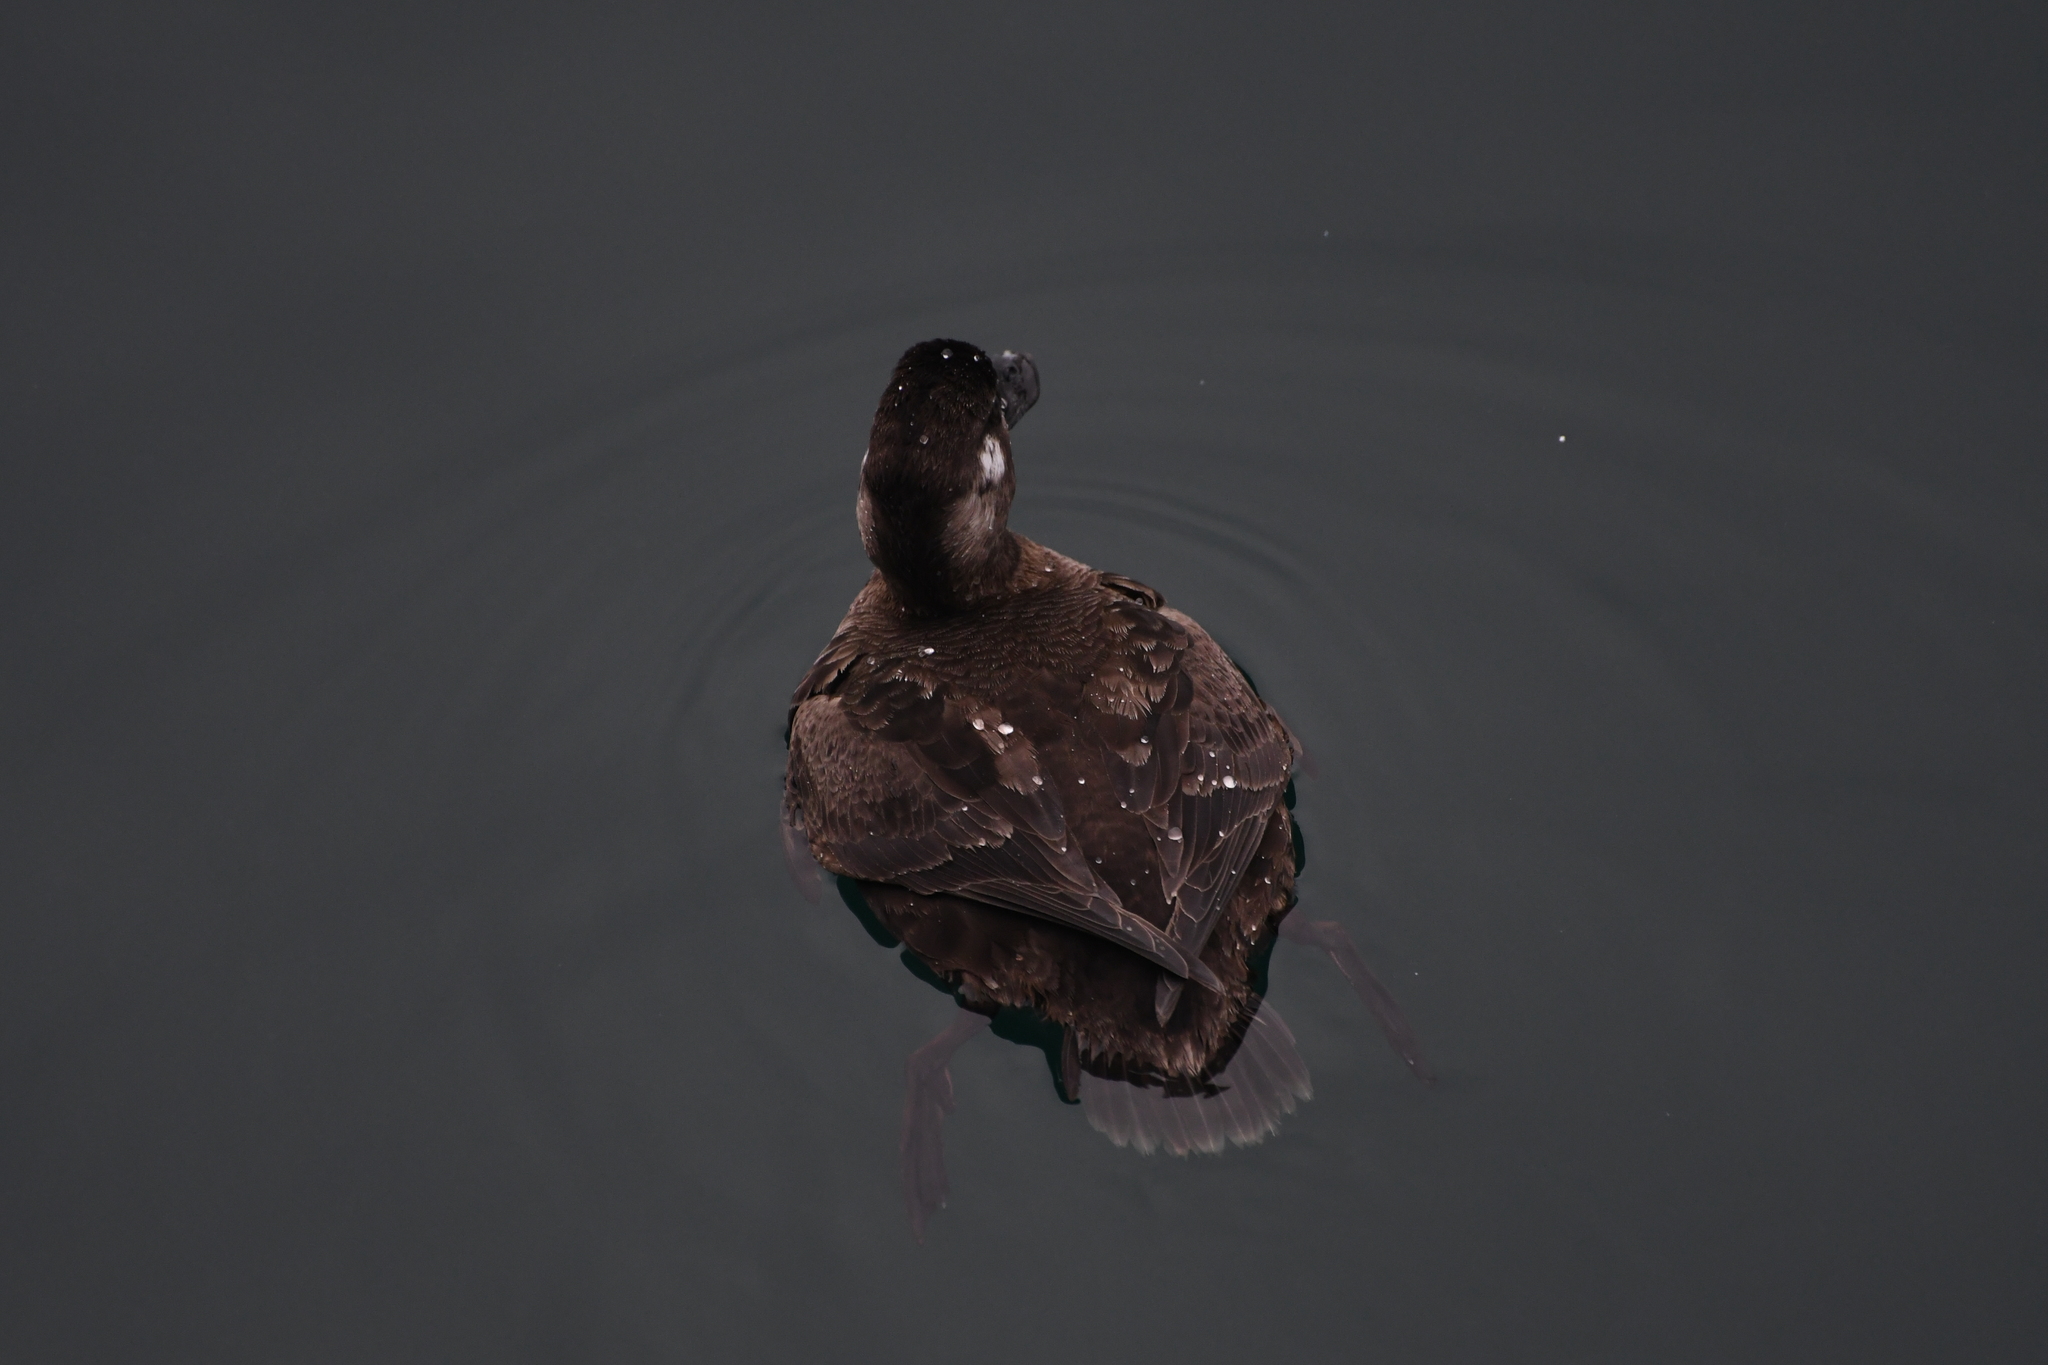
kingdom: Animalia
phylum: Chordata
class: Aves
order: Anseriformes
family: Anatidae
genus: Melanitta
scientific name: Melanitta perspicillata
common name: Surf scoter
